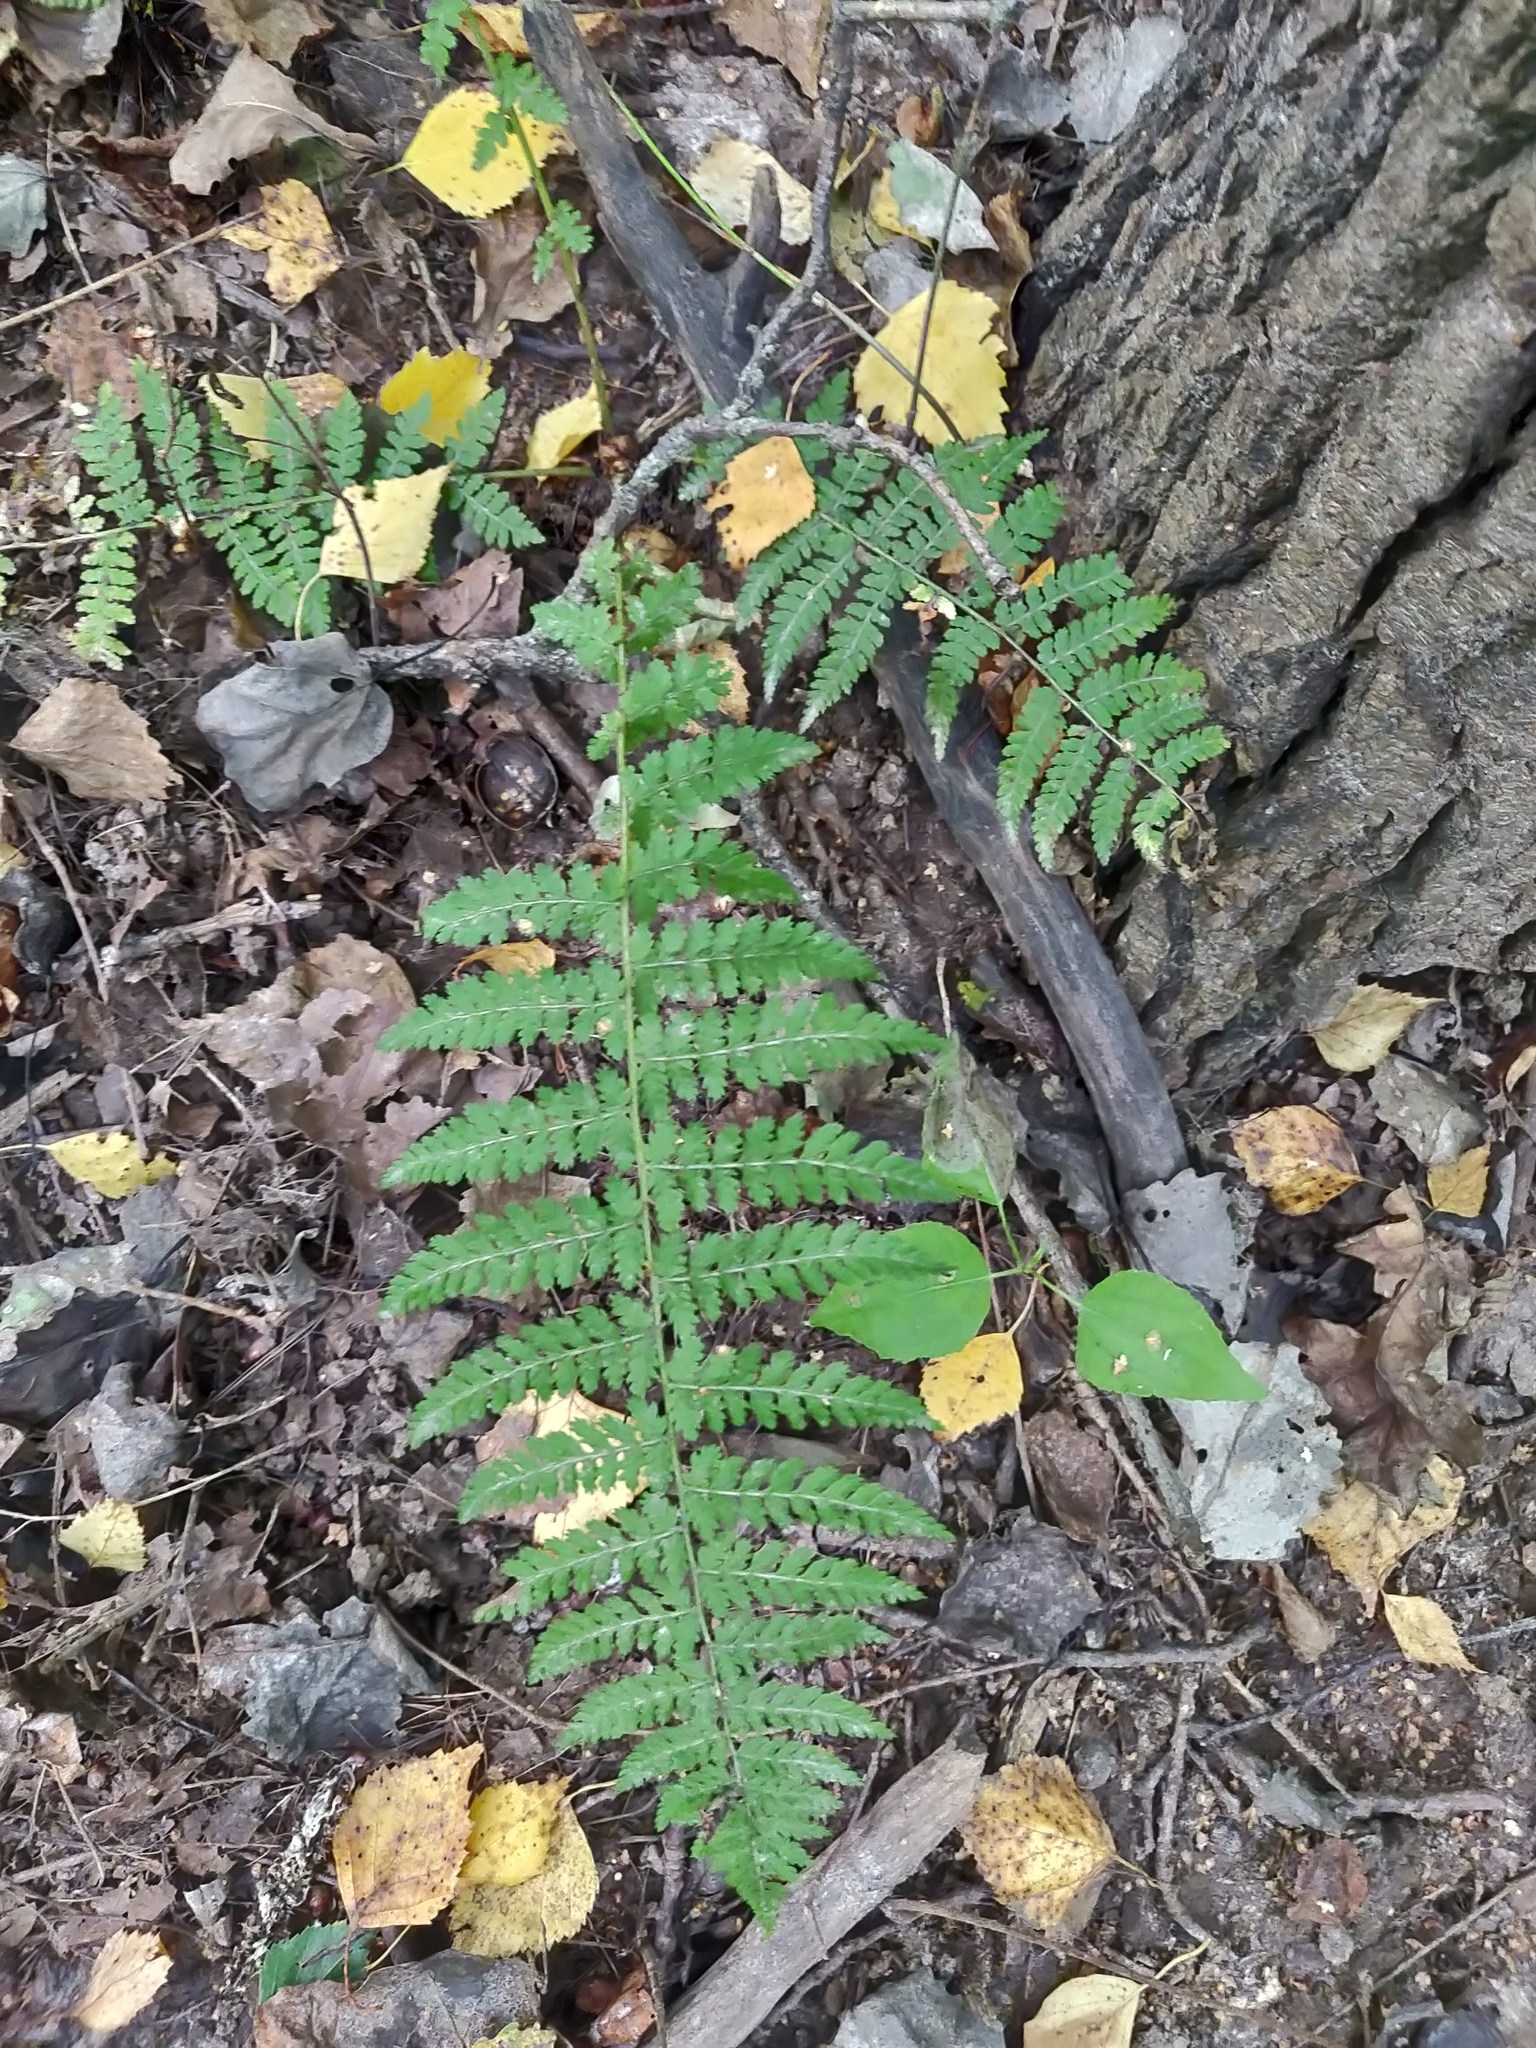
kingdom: Plantae
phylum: Tracheophyta
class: Polypodiopsida
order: Polypodiales
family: Athyriaceae
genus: Athyrium
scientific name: Athyrium filix-femina
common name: Lady fern
